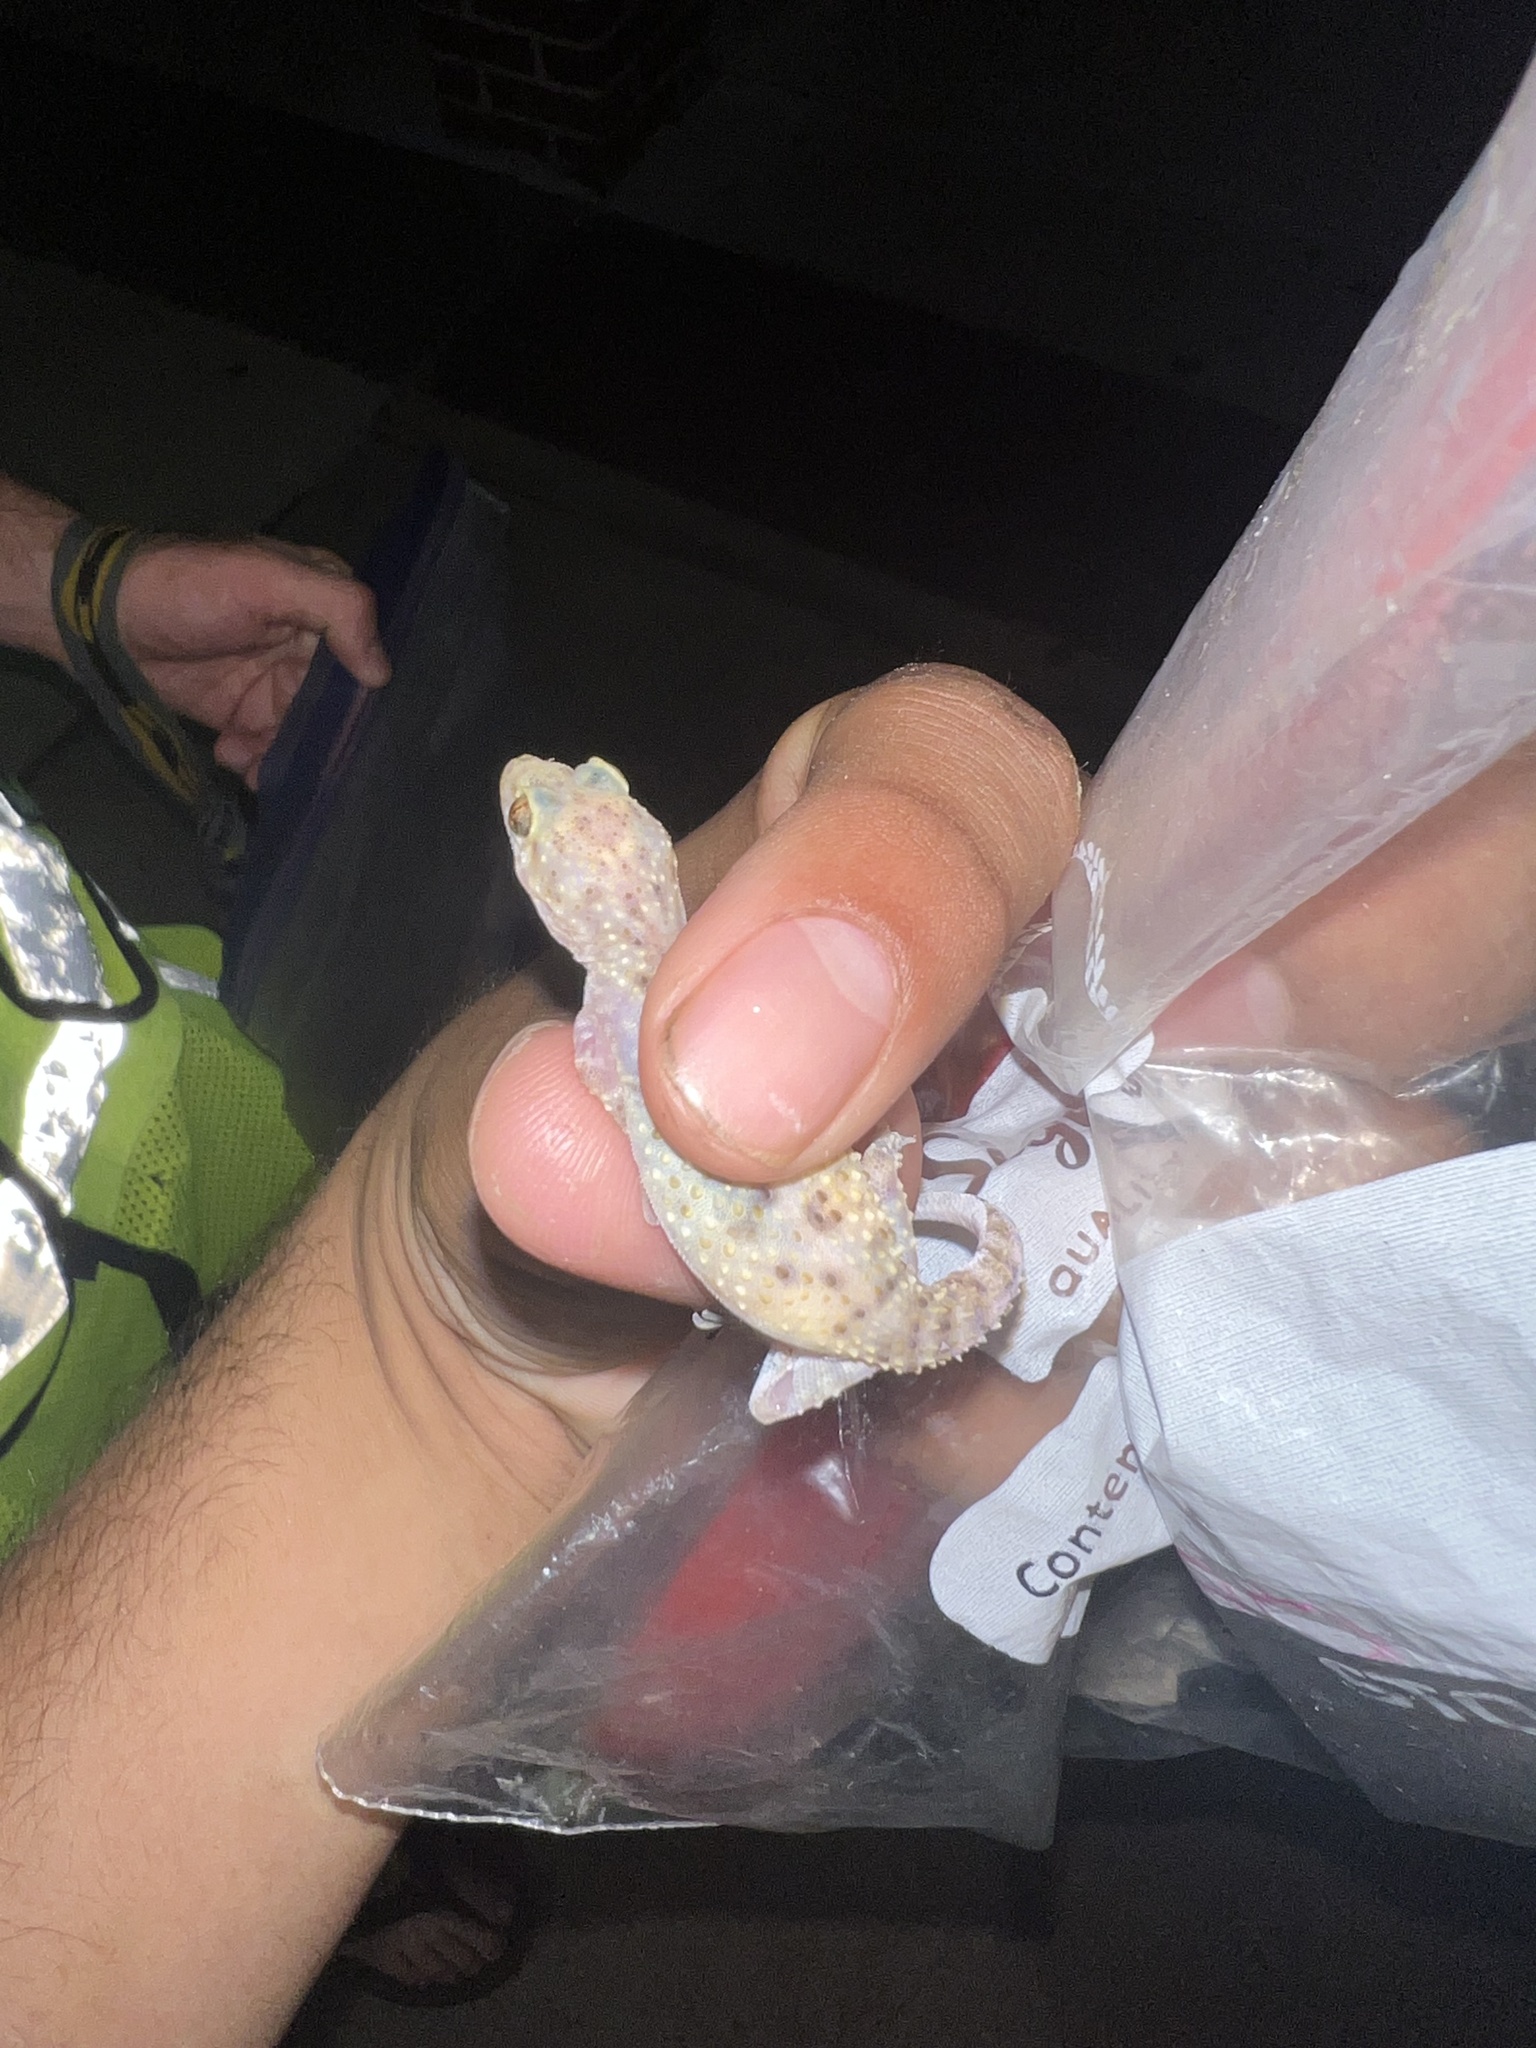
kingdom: Animalia
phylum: Chordata
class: Squamata
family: Gekkonidae
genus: Hemidactylus
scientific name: Hemidactylus turcicus
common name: Turkish gecko
